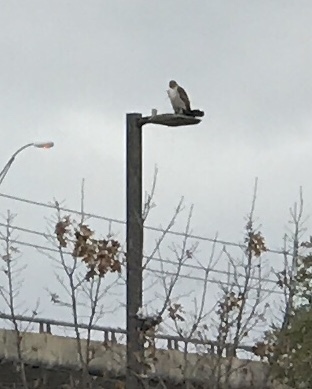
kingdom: Animalia
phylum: Chordata
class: Aves
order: Accipitriformes
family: Accipitridae
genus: Buteo
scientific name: Buteo jamaicensis
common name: Red-tailed hawk
